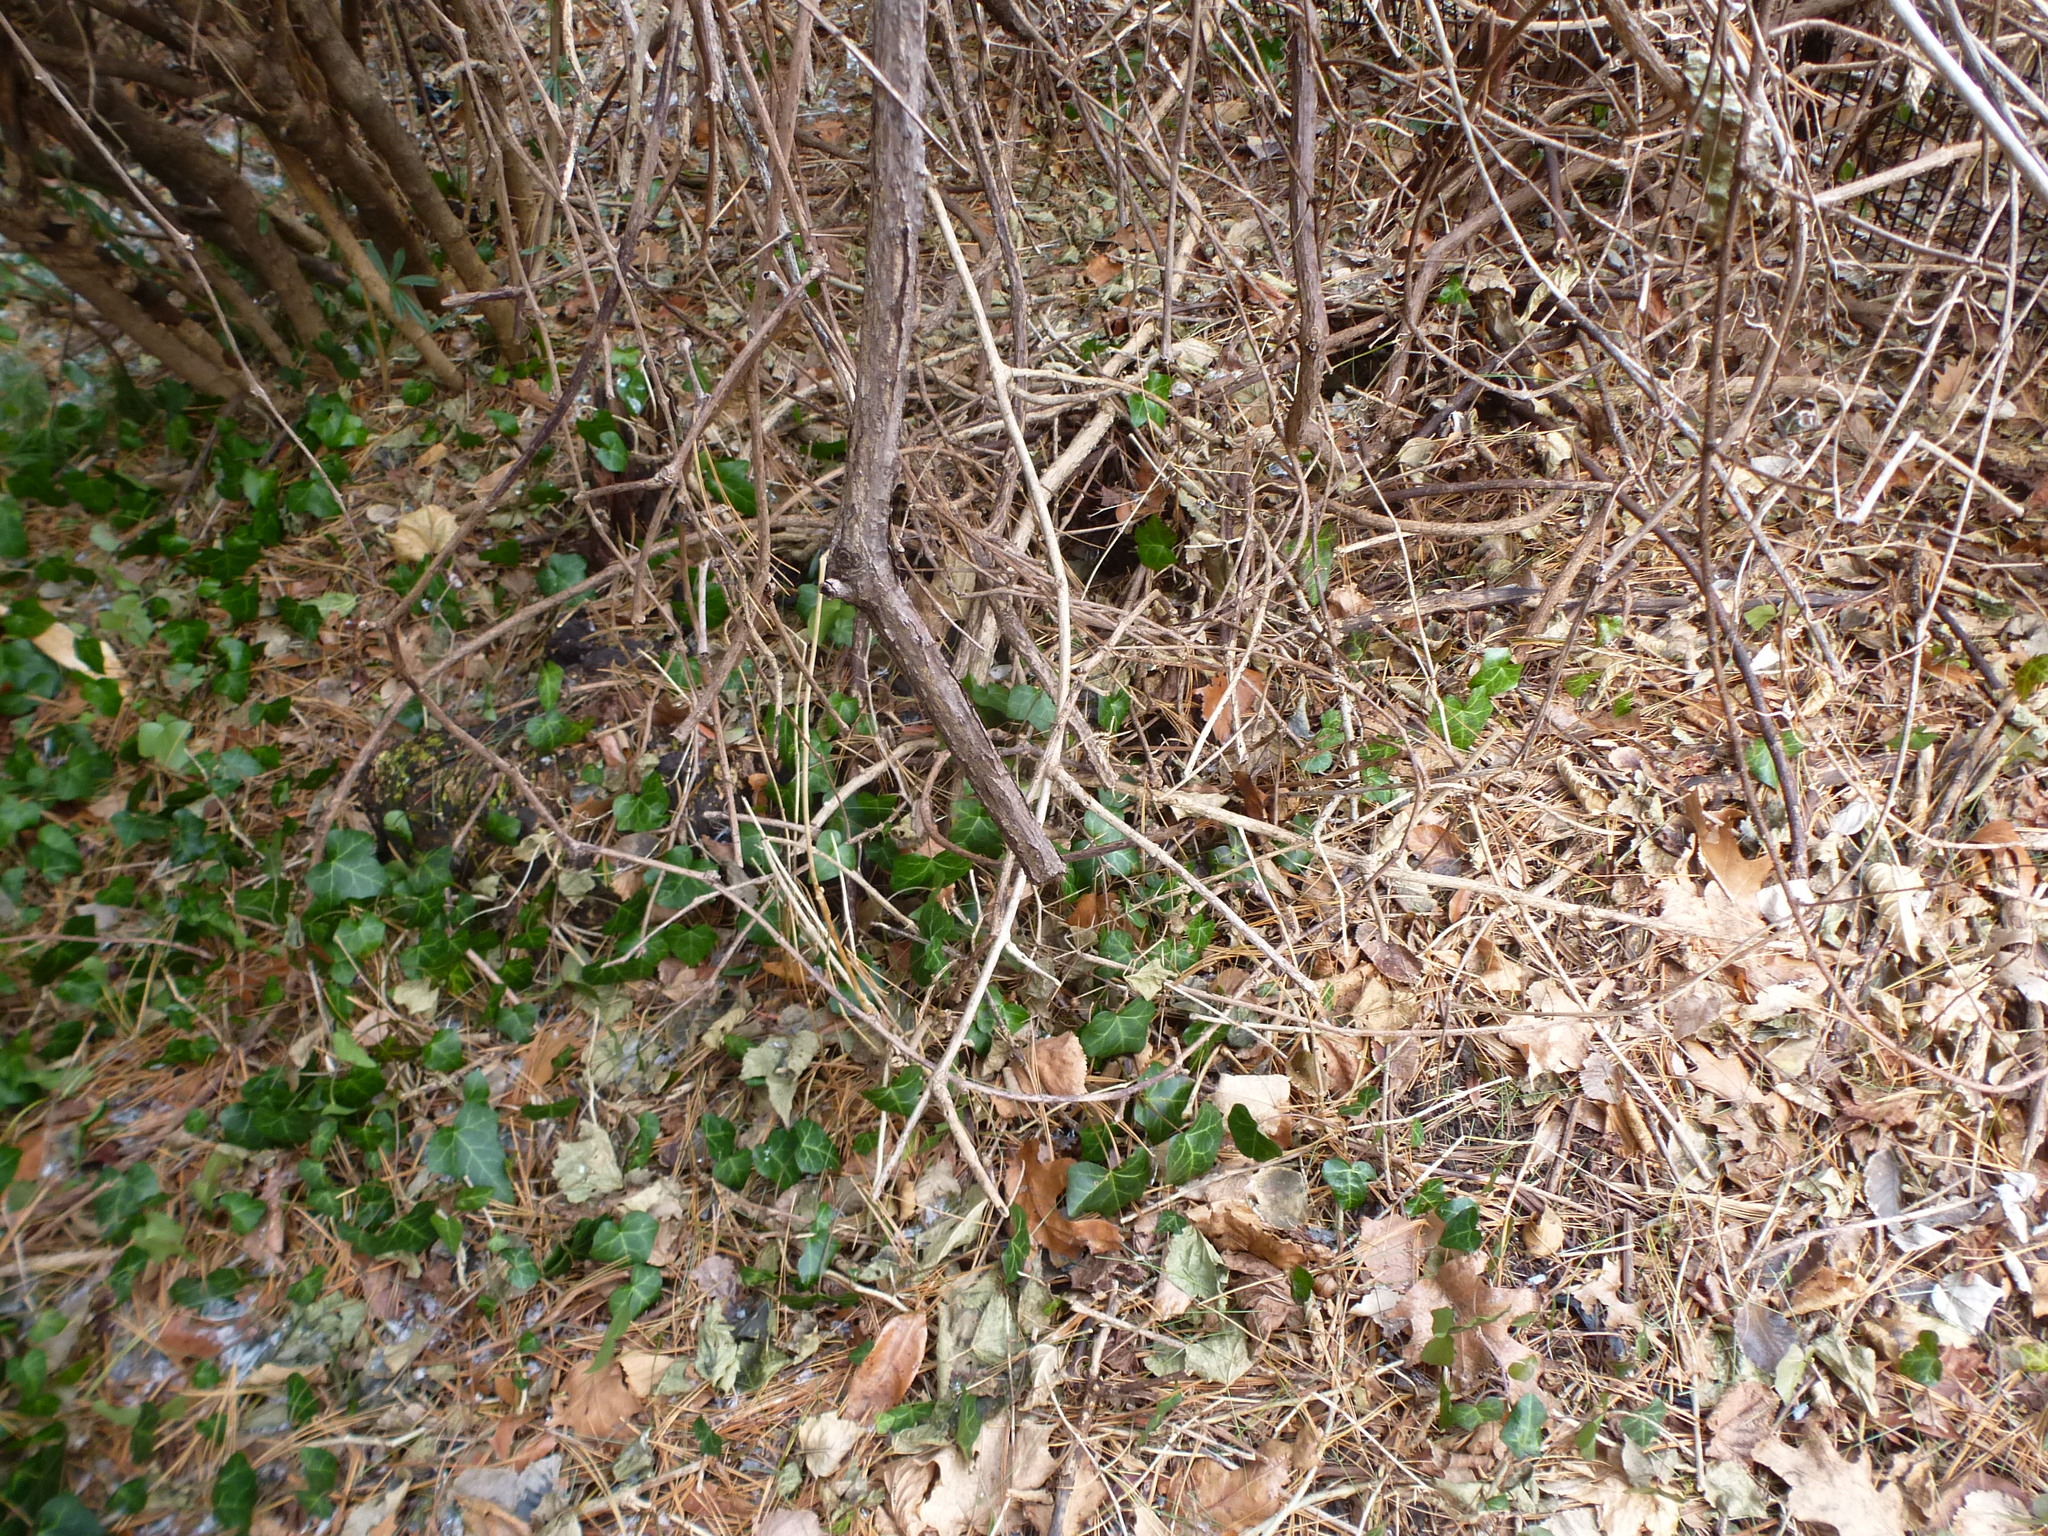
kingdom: Plantae
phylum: Tracheophyta
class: Magnoliopsida
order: Apiales
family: Araliaceae
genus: Hedera
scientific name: Hedera helix
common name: Ivy
